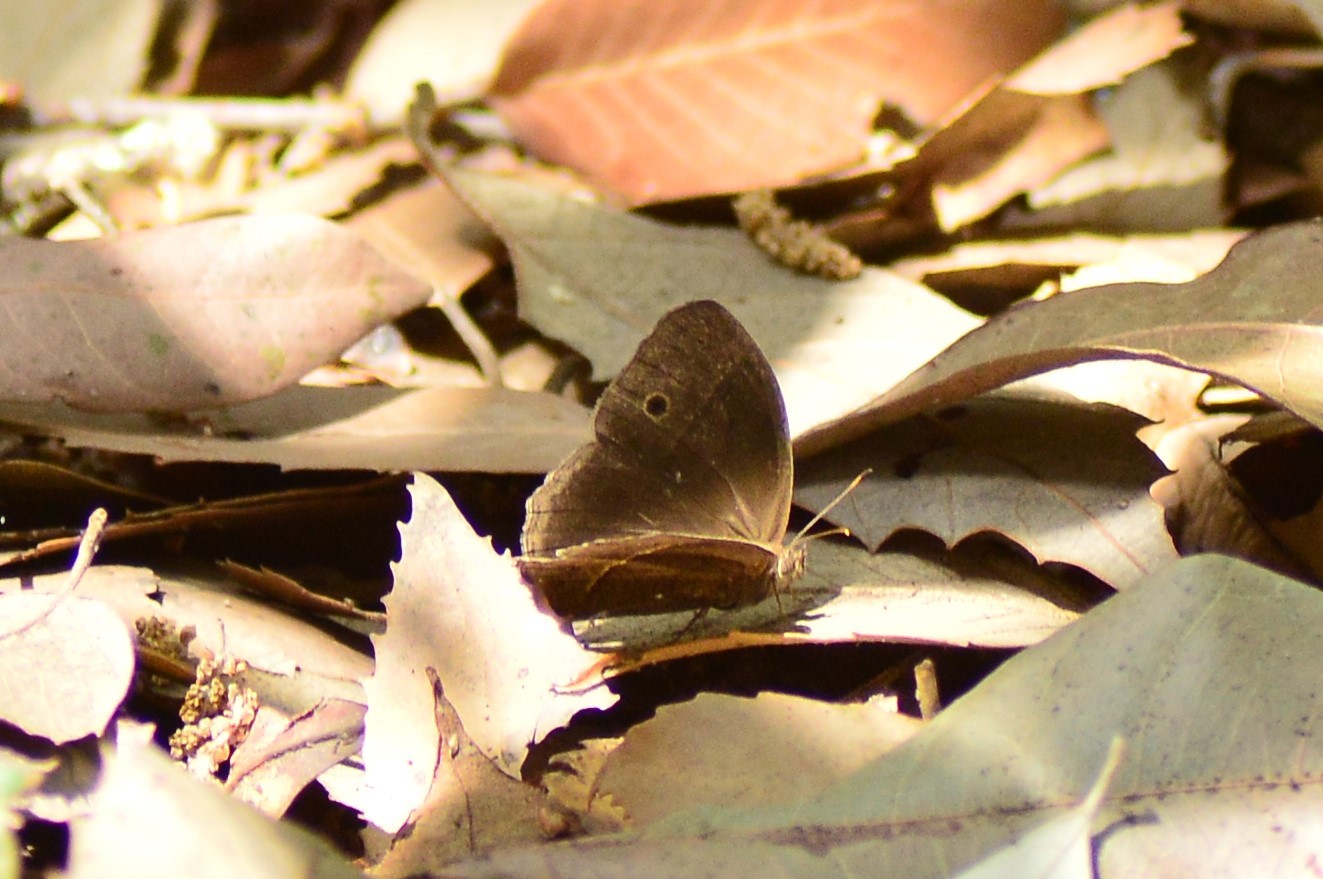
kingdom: Animalia
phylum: Arthropoda
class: Insecta
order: Lepidoptera
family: Nymphalidae
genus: Mycalesis
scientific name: Mycalesis Telinga spec
